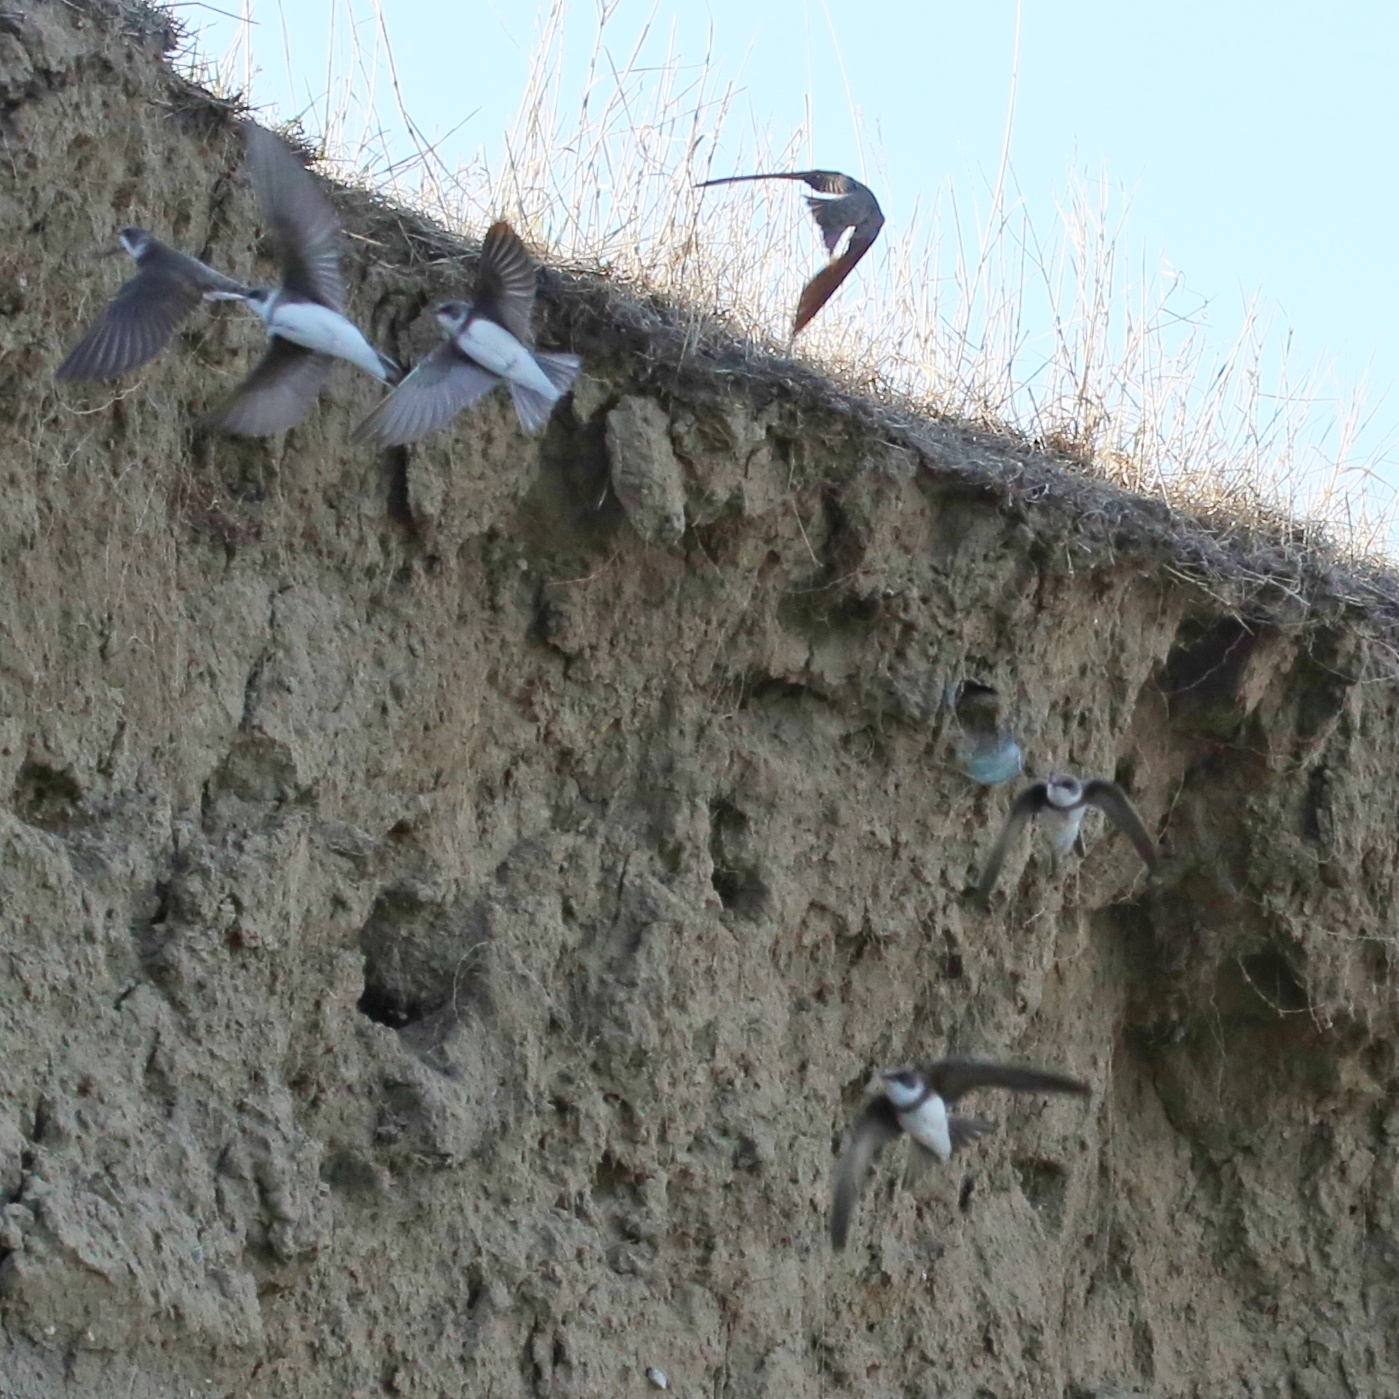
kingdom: Animalia
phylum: Chordata
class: Aves
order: Passeriformes
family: Hirundinidae
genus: Riparia
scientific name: Riparia riparia
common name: Sand martin
